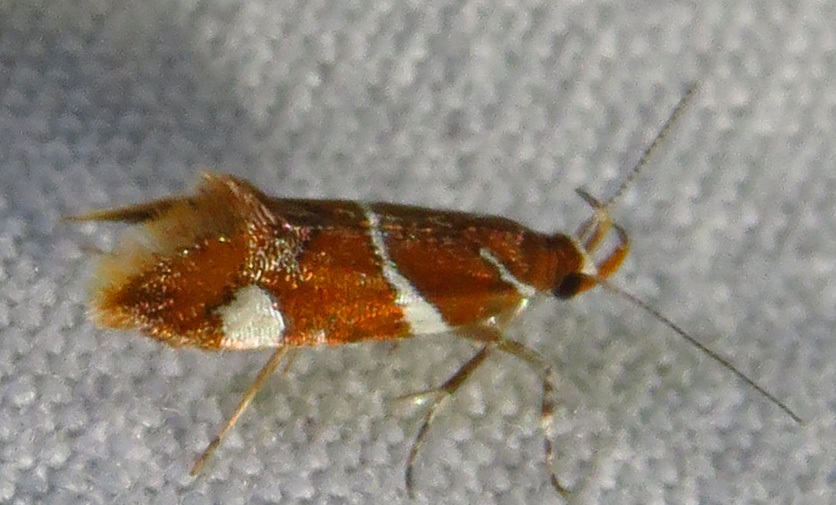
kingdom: Animalia
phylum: Arthropoda
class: Insecta
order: Lepidoptera
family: Oecophoridae
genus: Promalactis
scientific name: Promalactis suzukiella
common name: Moth
